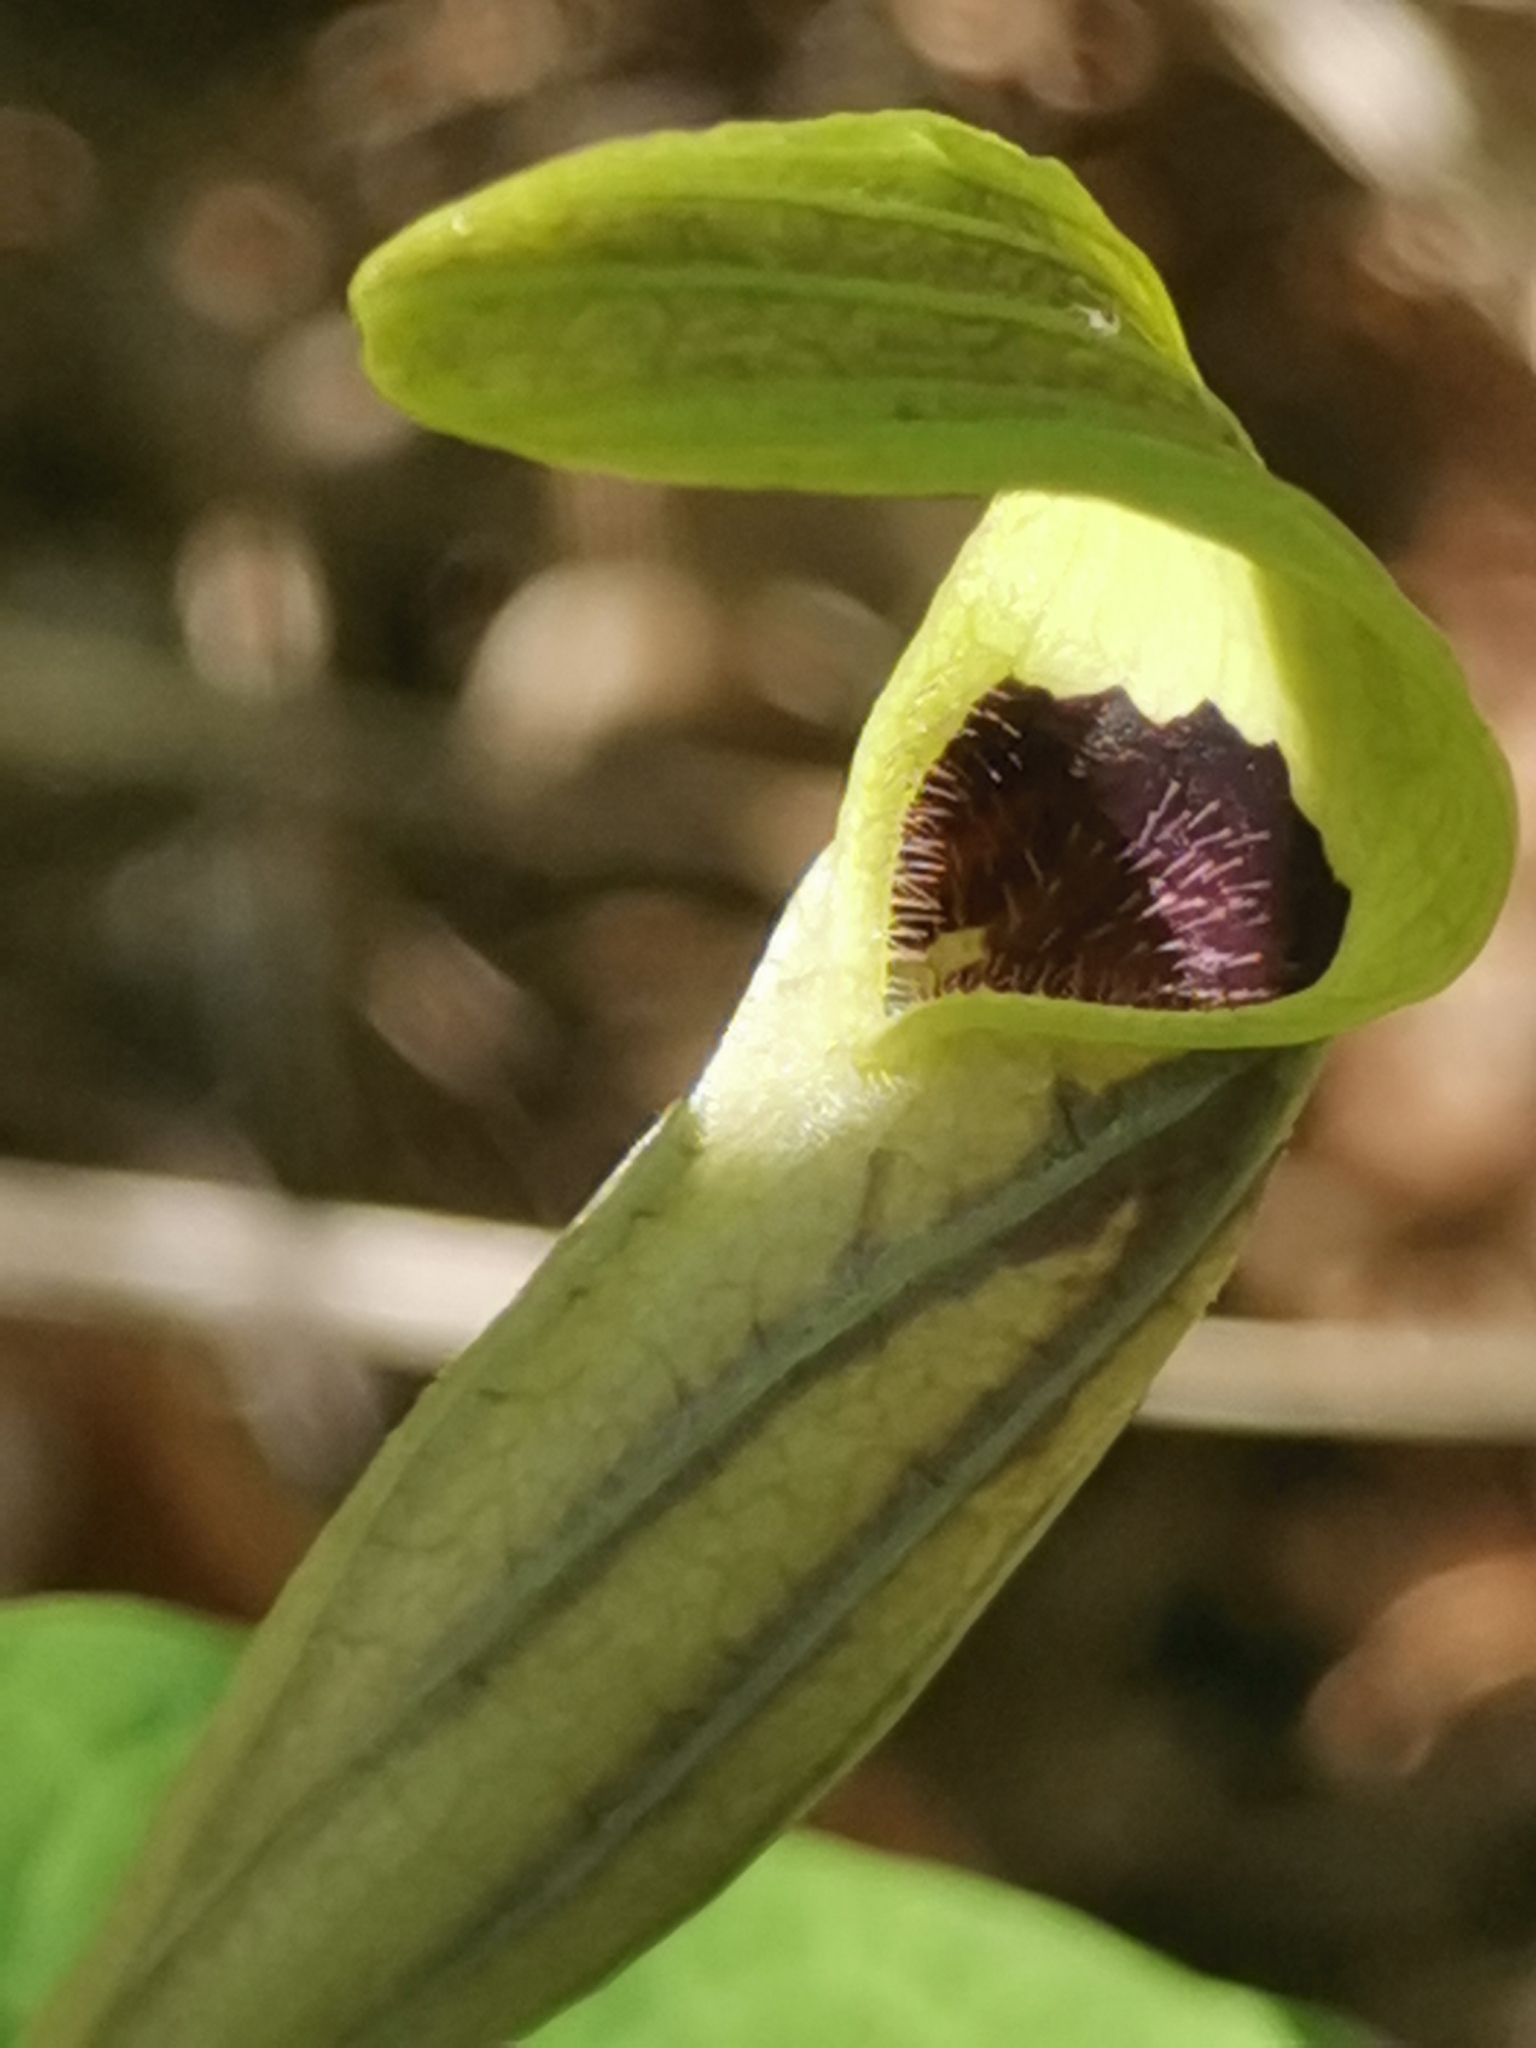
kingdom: Plantae
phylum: Tracheophyta
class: Magnoliopsida
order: Piperales
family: Aristolochiaceae
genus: Aristolochia
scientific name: Aristolochia pallida
